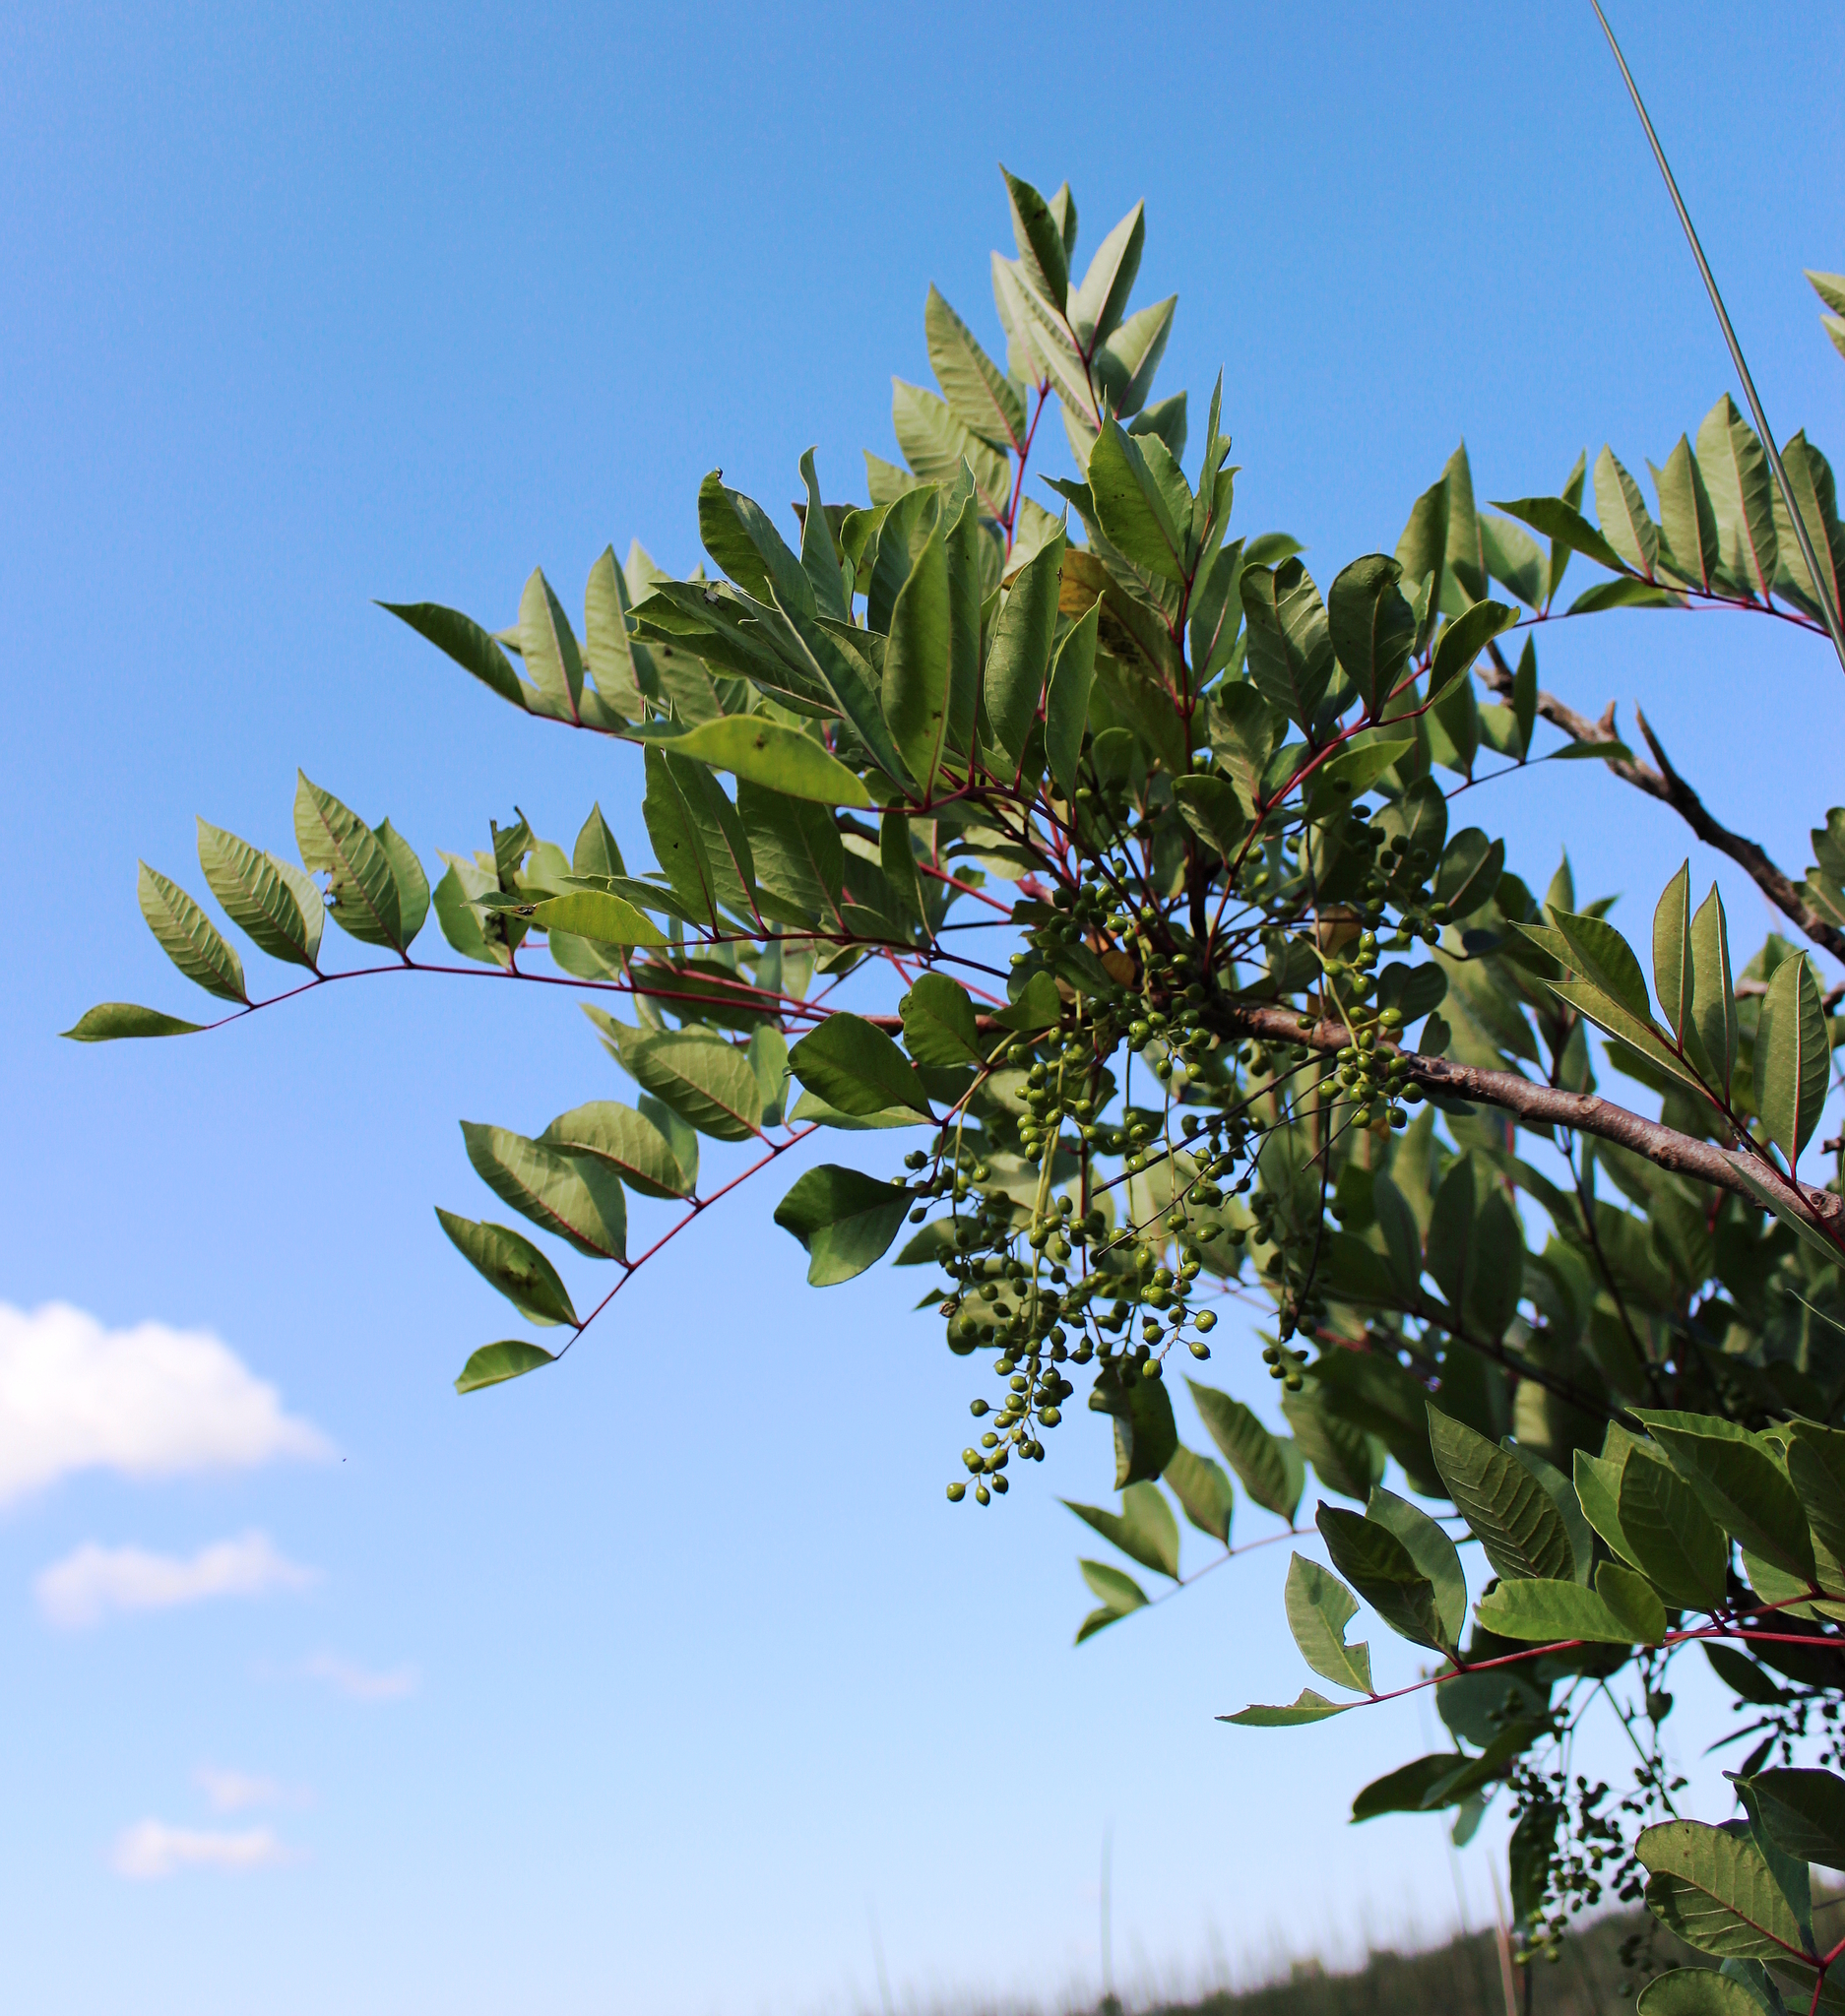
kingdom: Plantae
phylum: Tracheophyta
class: Magnoliopsida
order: Sapindales
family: Anacardiaceae
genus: Toxicodendron
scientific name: Toxicodendron vernix
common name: Poison sumac
